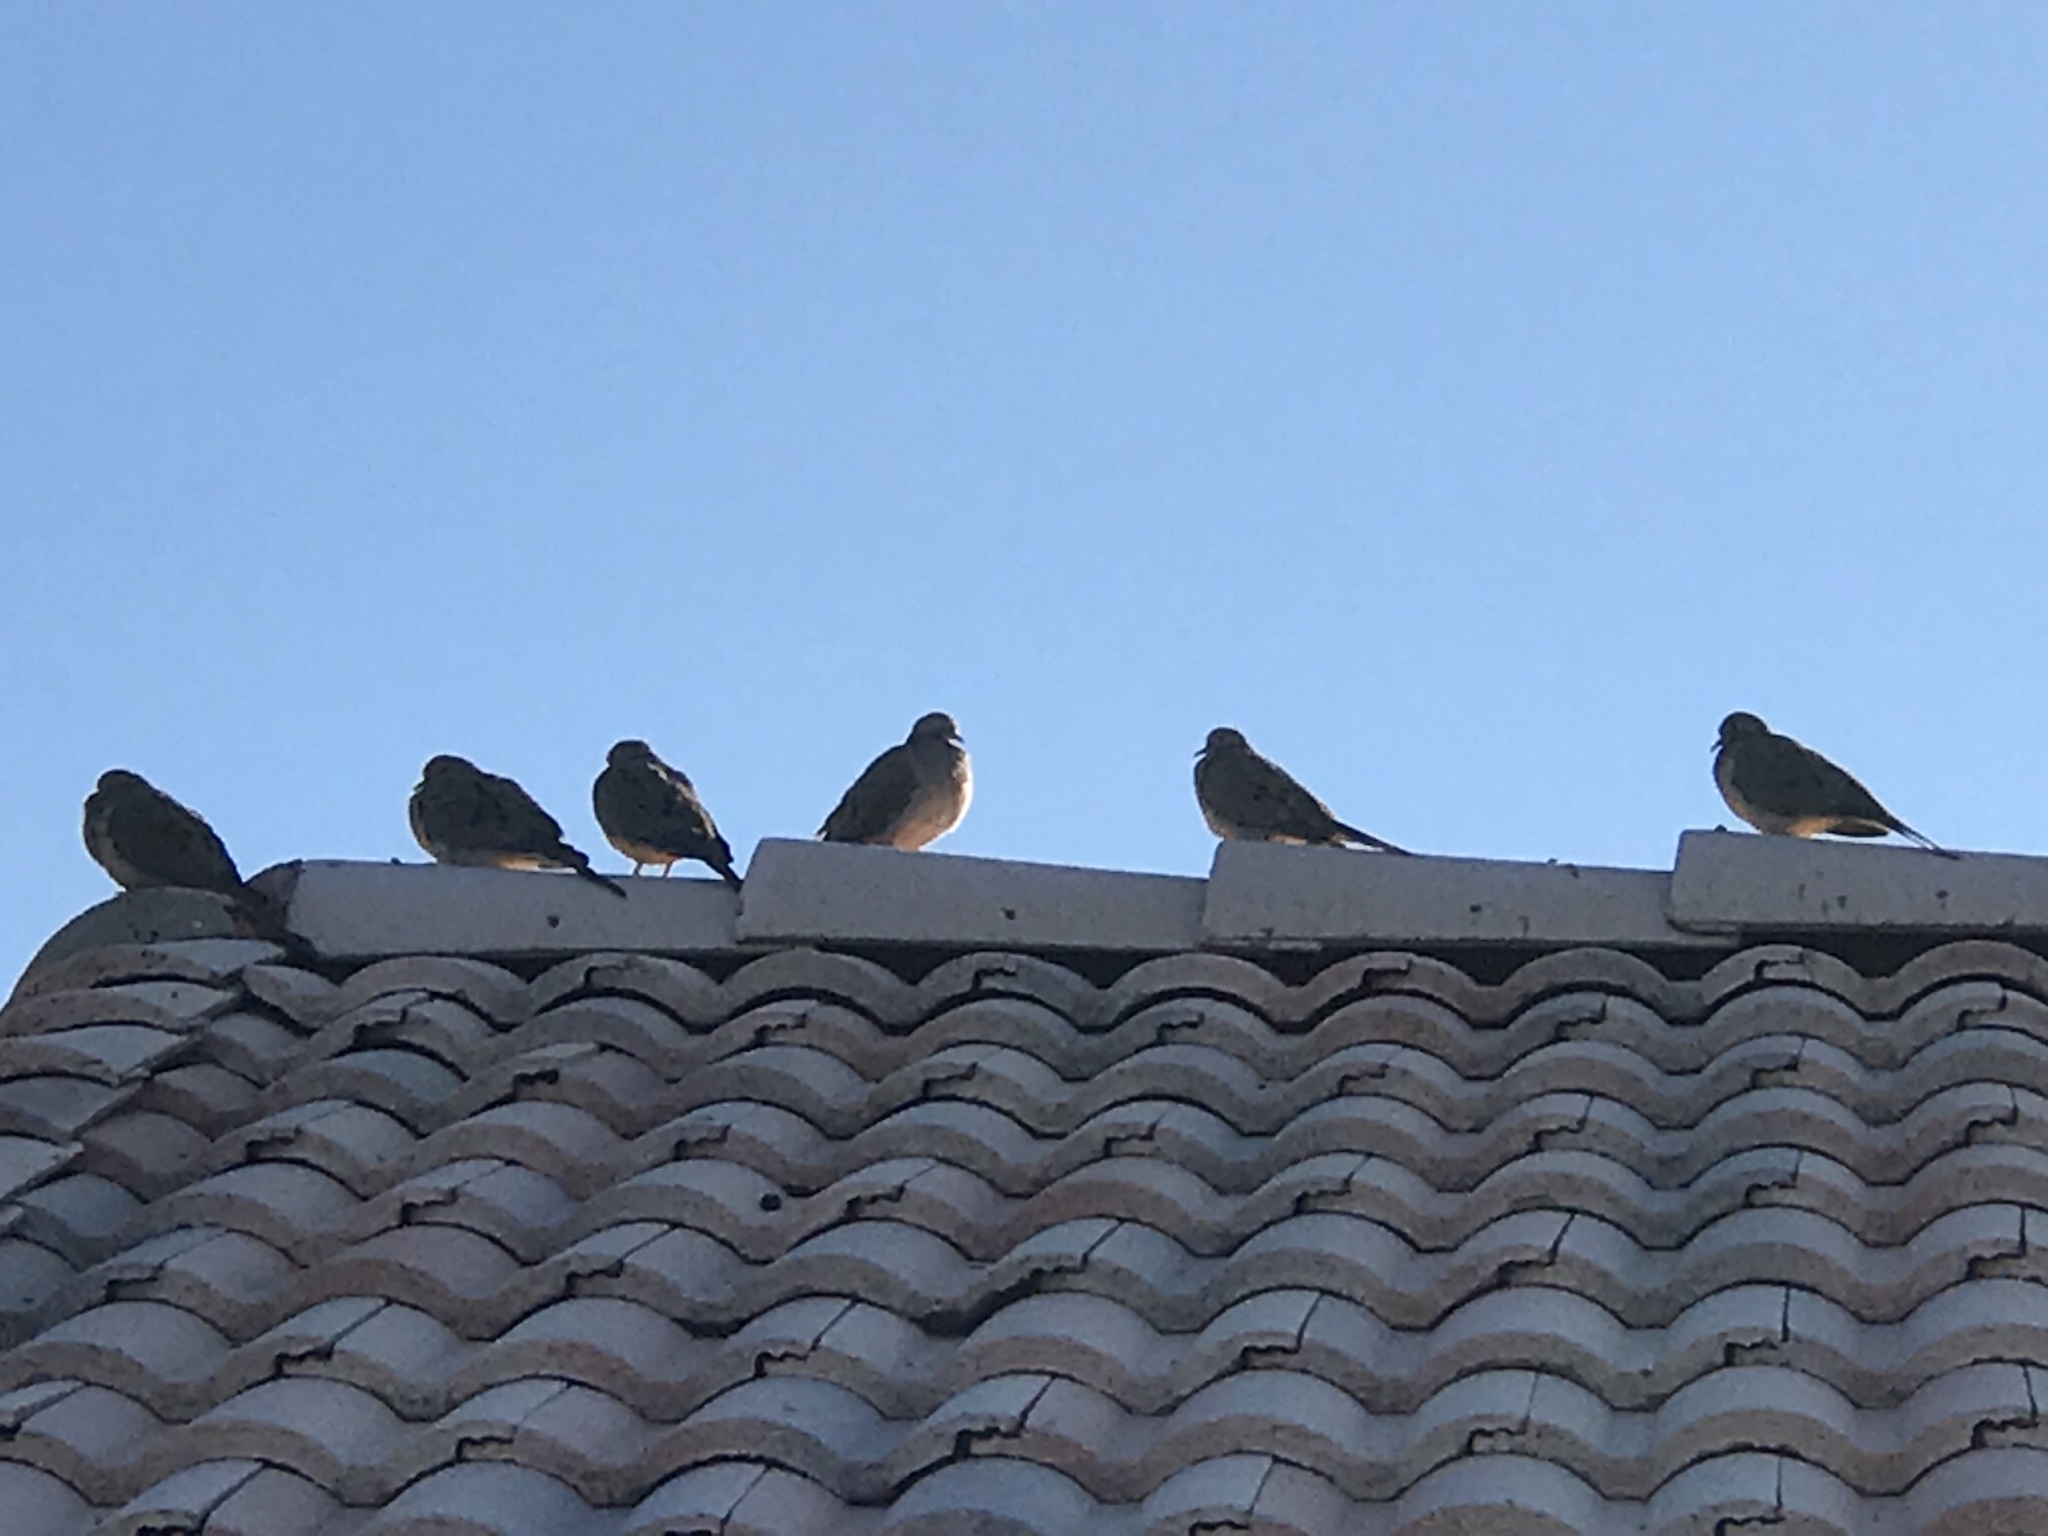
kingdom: Animalia
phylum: Chordata
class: Aves
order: Columbiformes
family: Columbidae
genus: Zenaida
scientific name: Zenaida macroura
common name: Mourning dove
